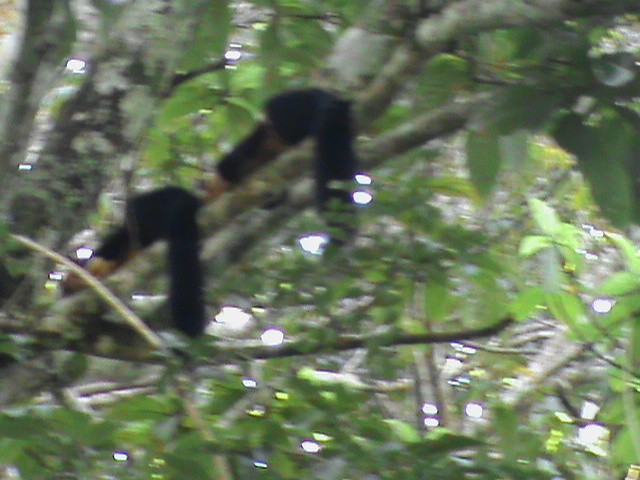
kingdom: Animalia
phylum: Chordata
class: Mammalia
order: Rodentia
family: Sciuridae
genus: Ratufa
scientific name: Ratufa indica
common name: Indian giant squirrel
